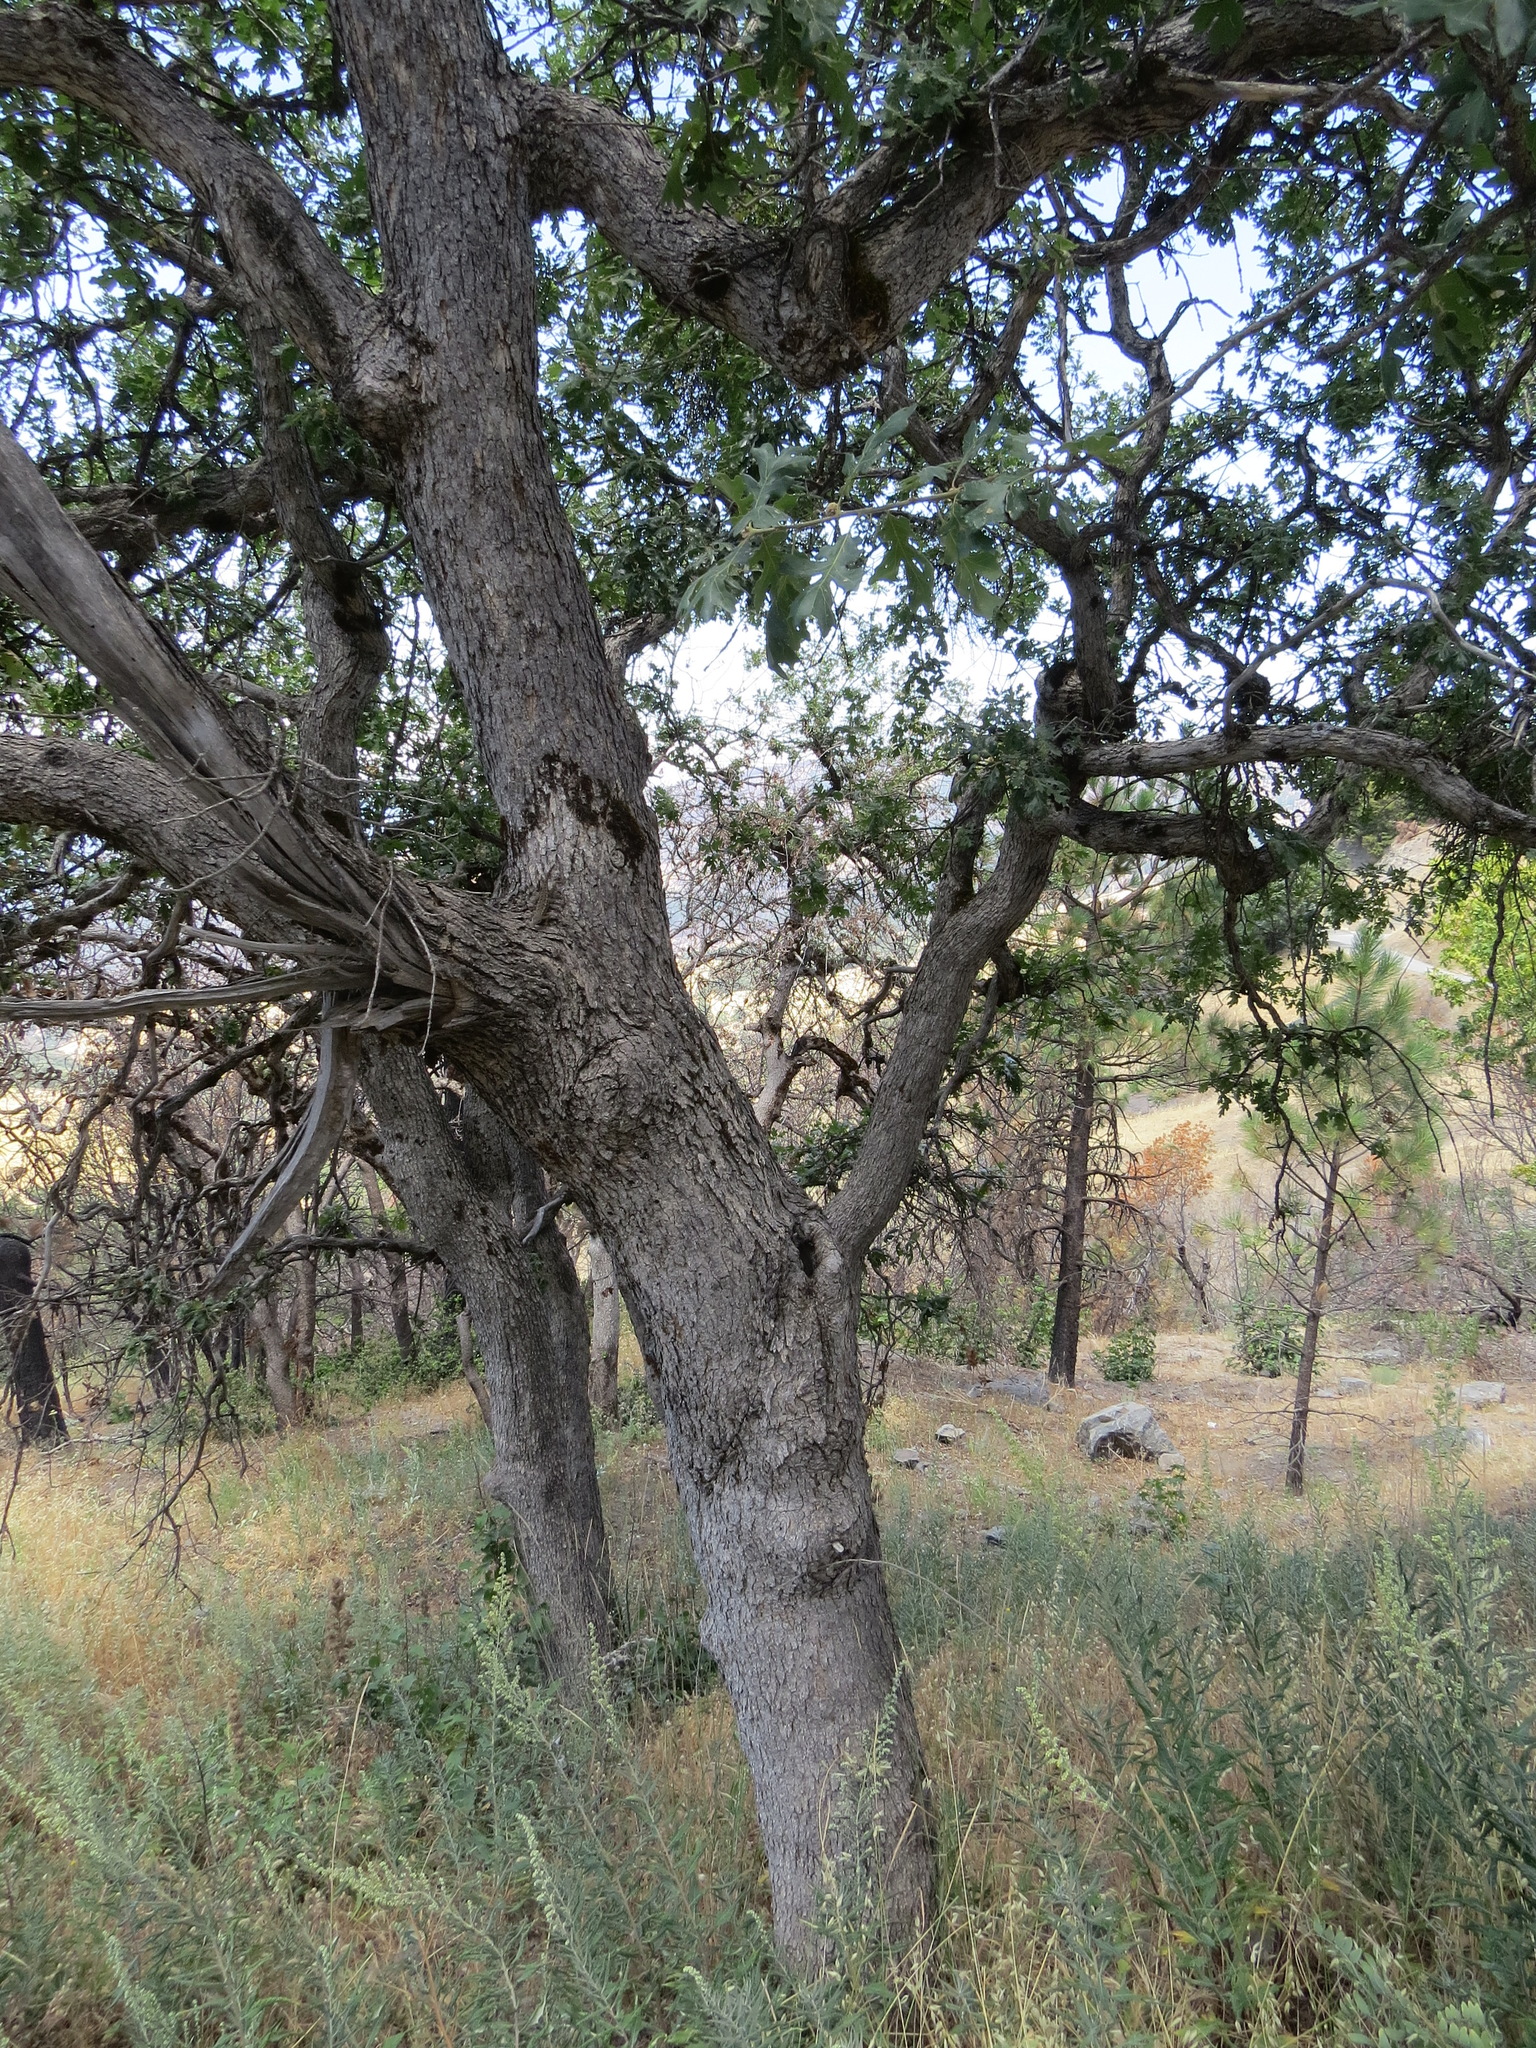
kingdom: Plantae
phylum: Tracheophyta
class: Magnoliopsida
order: Fagales
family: Fagaceae
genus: Quercus
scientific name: Quercus garryana
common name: Garry oak
